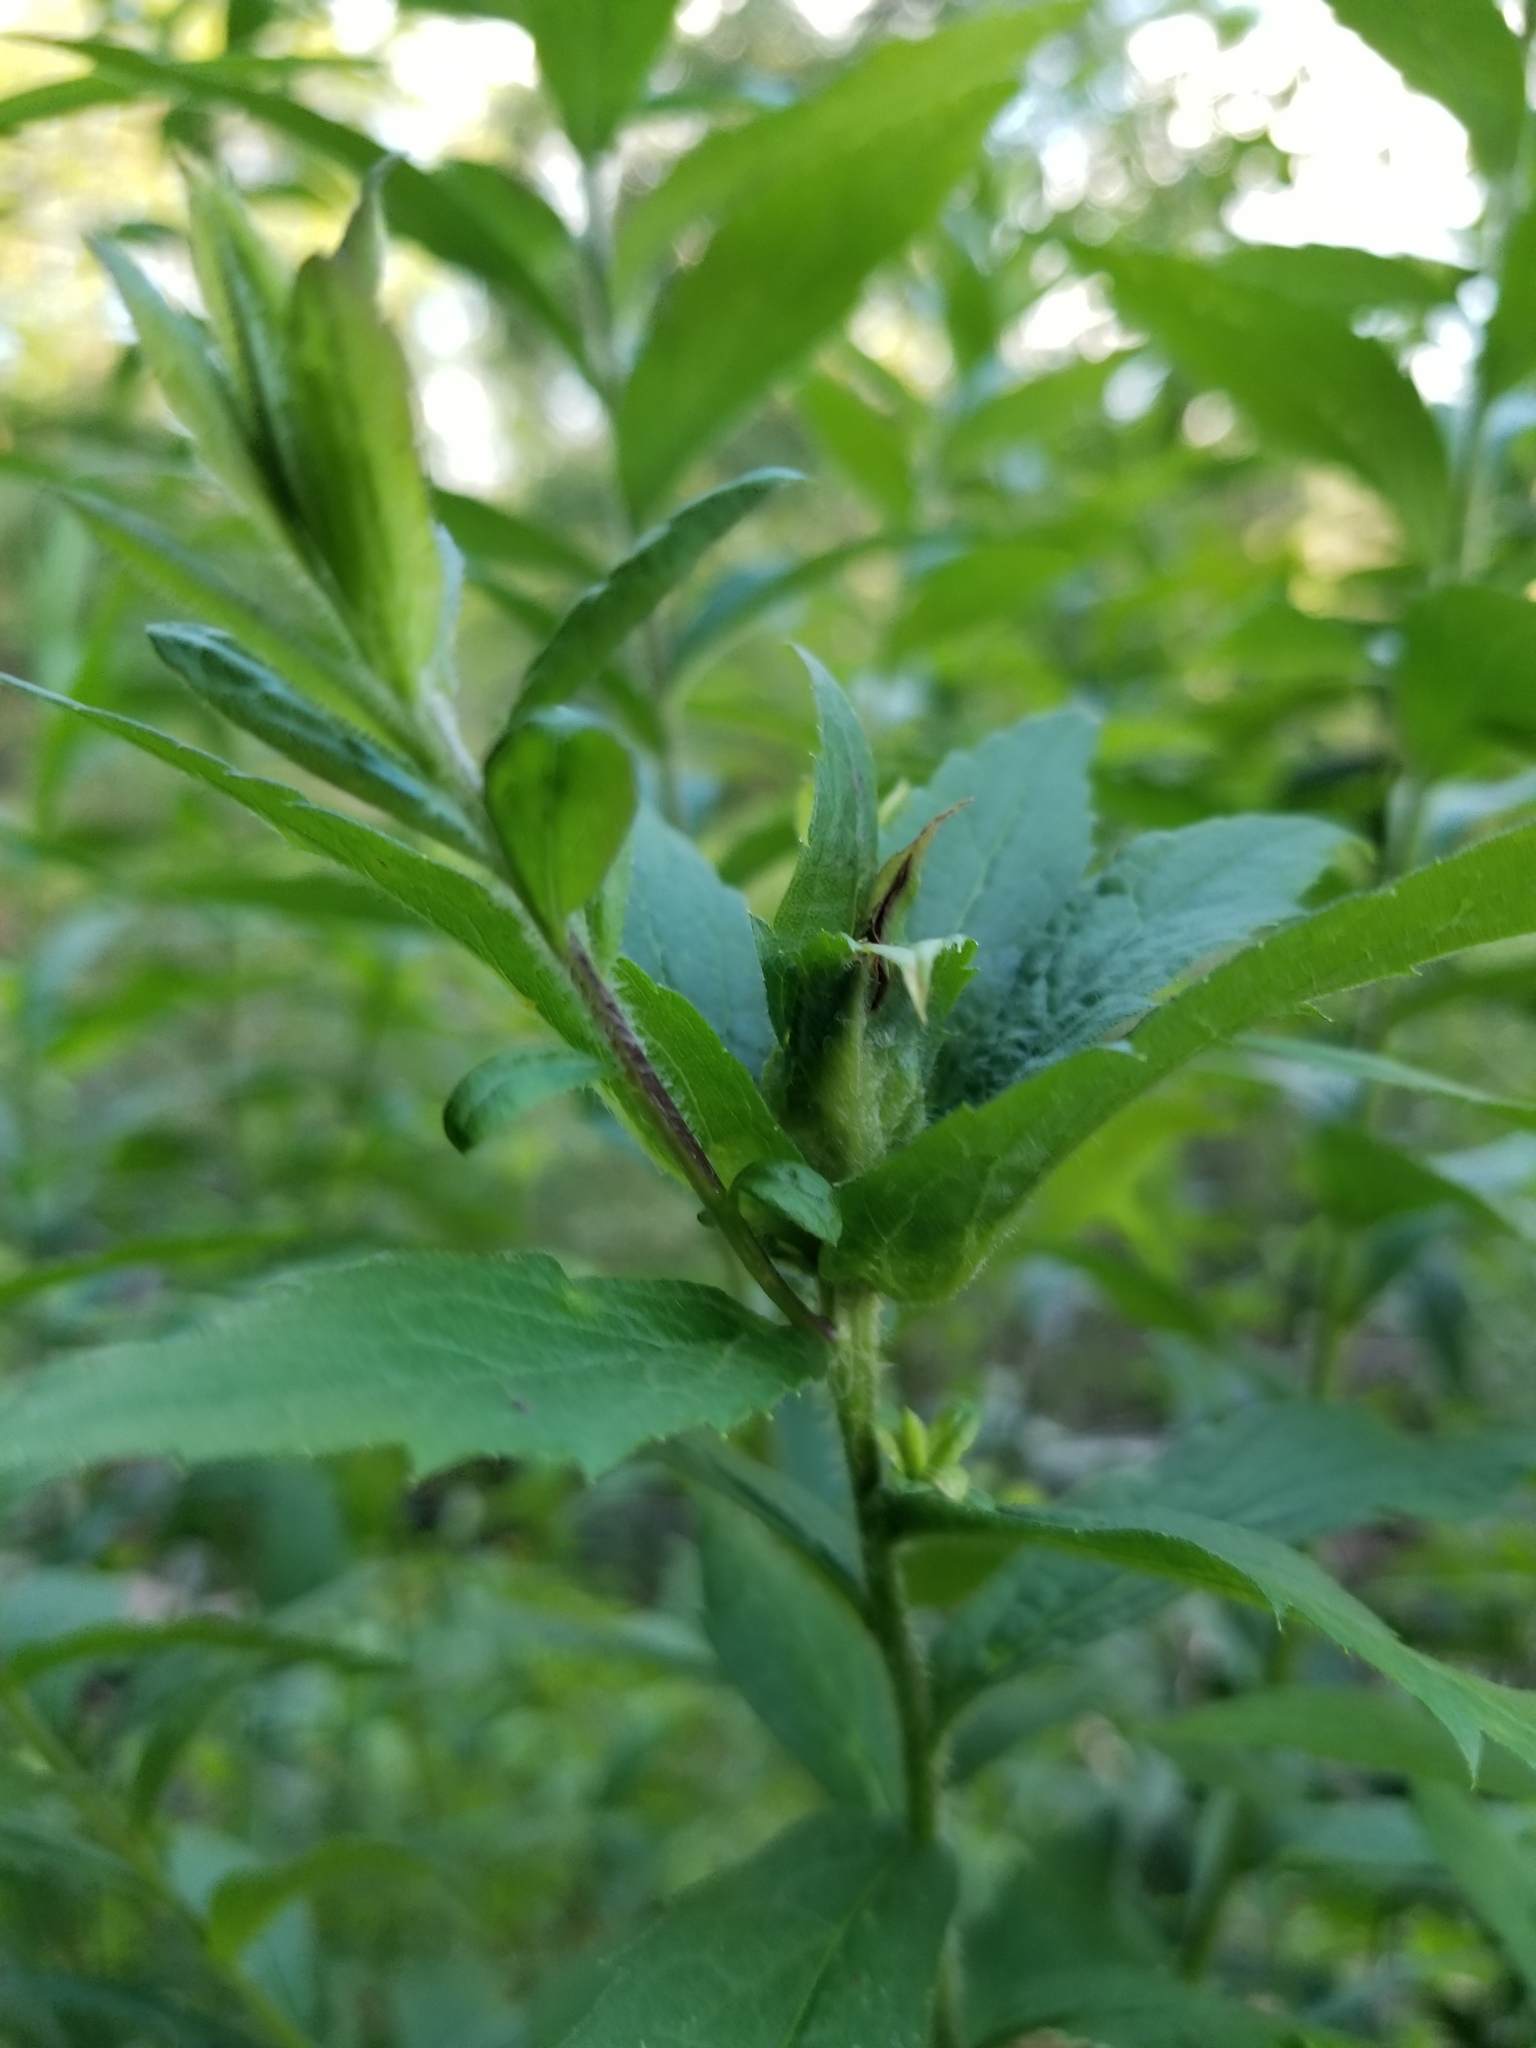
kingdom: Animalia
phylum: Arthropoda
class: Insecta
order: Diptera
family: Cecidomyiidae
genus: Dasineura
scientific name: Dasineura folliculi
